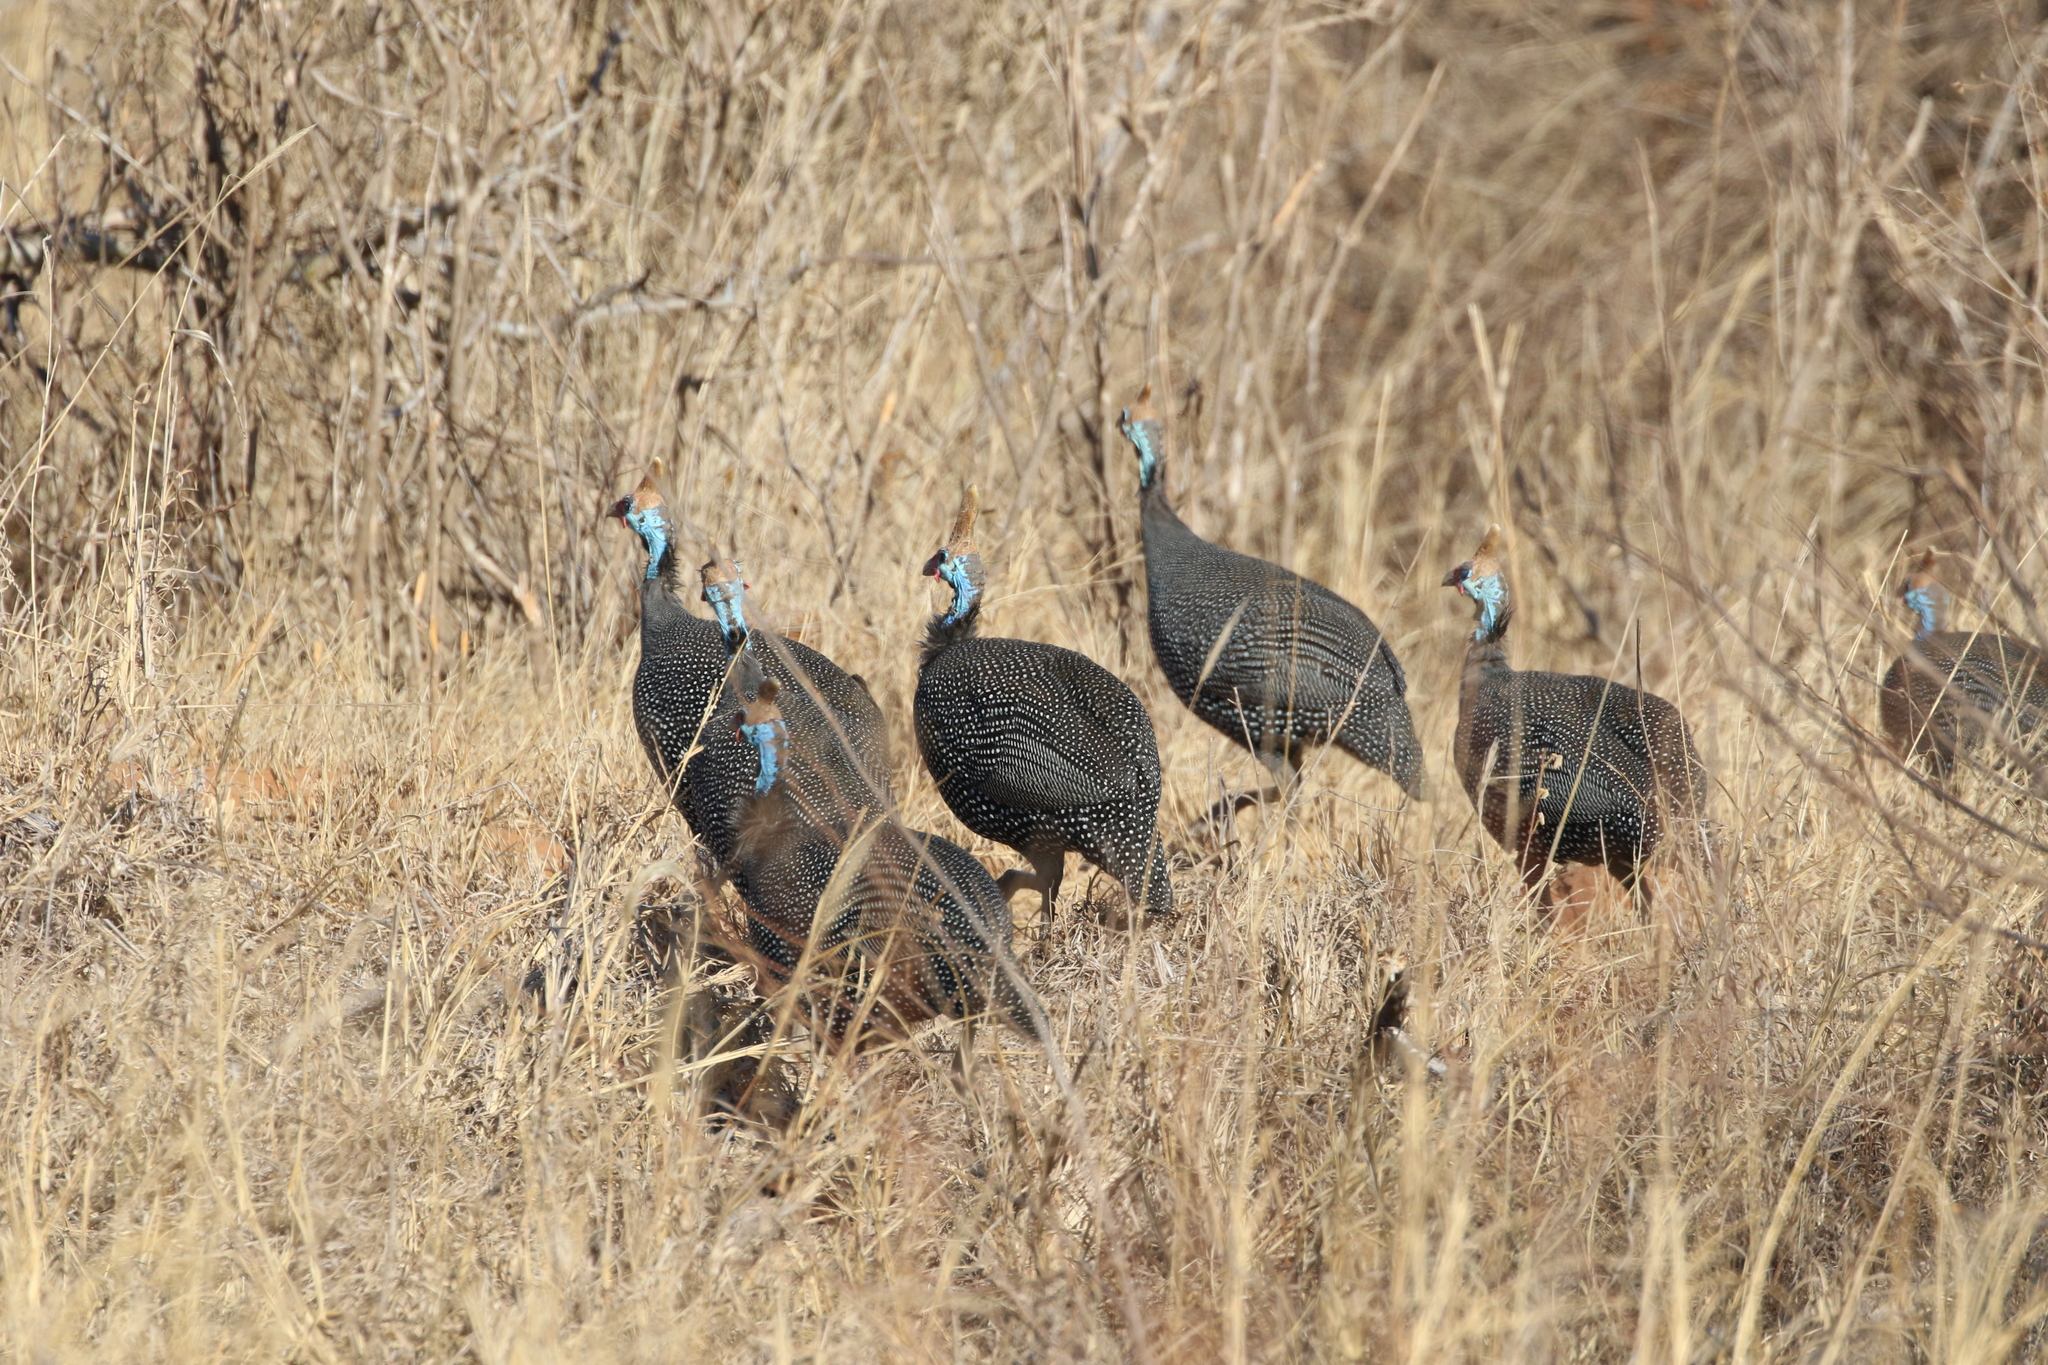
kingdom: Animalia
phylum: Chordata
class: Aves
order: Galliformes
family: Numididae
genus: Numida
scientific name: Numida meleagris
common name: Helmeted guineafowl
